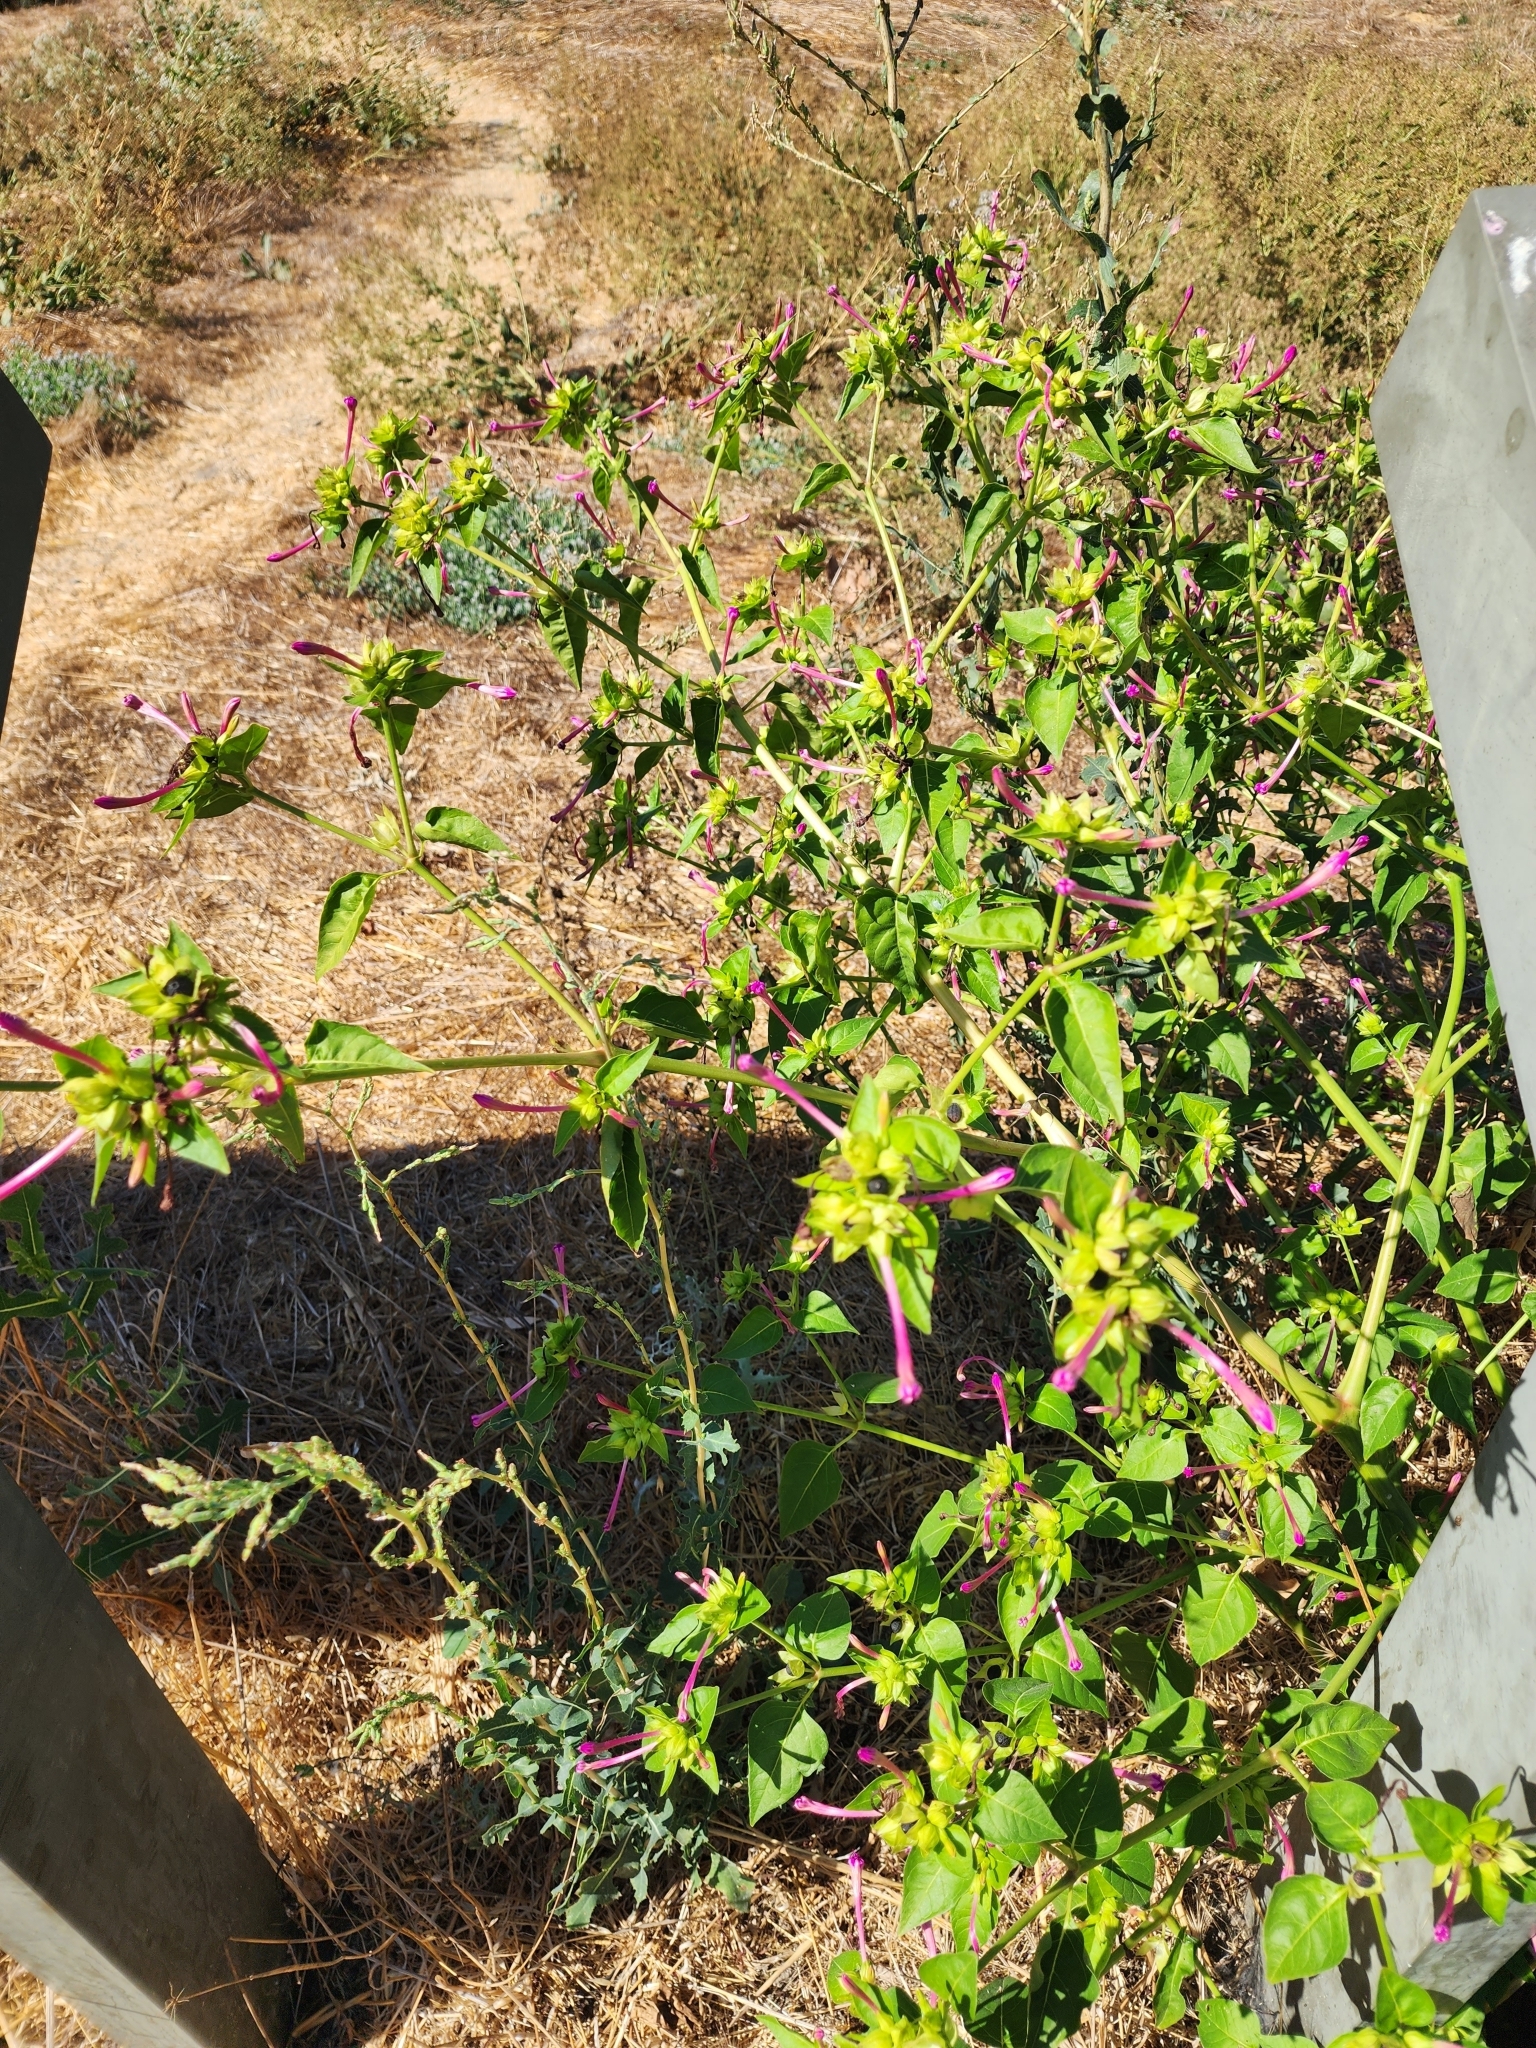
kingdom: Plantae
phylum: Tracheophyta
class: Magnoliopsida
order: Caryophyllales
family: Nyctaginaceae
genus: Mirabilis
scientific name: Mirabilis jalapa
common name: Marvel-of-peru
